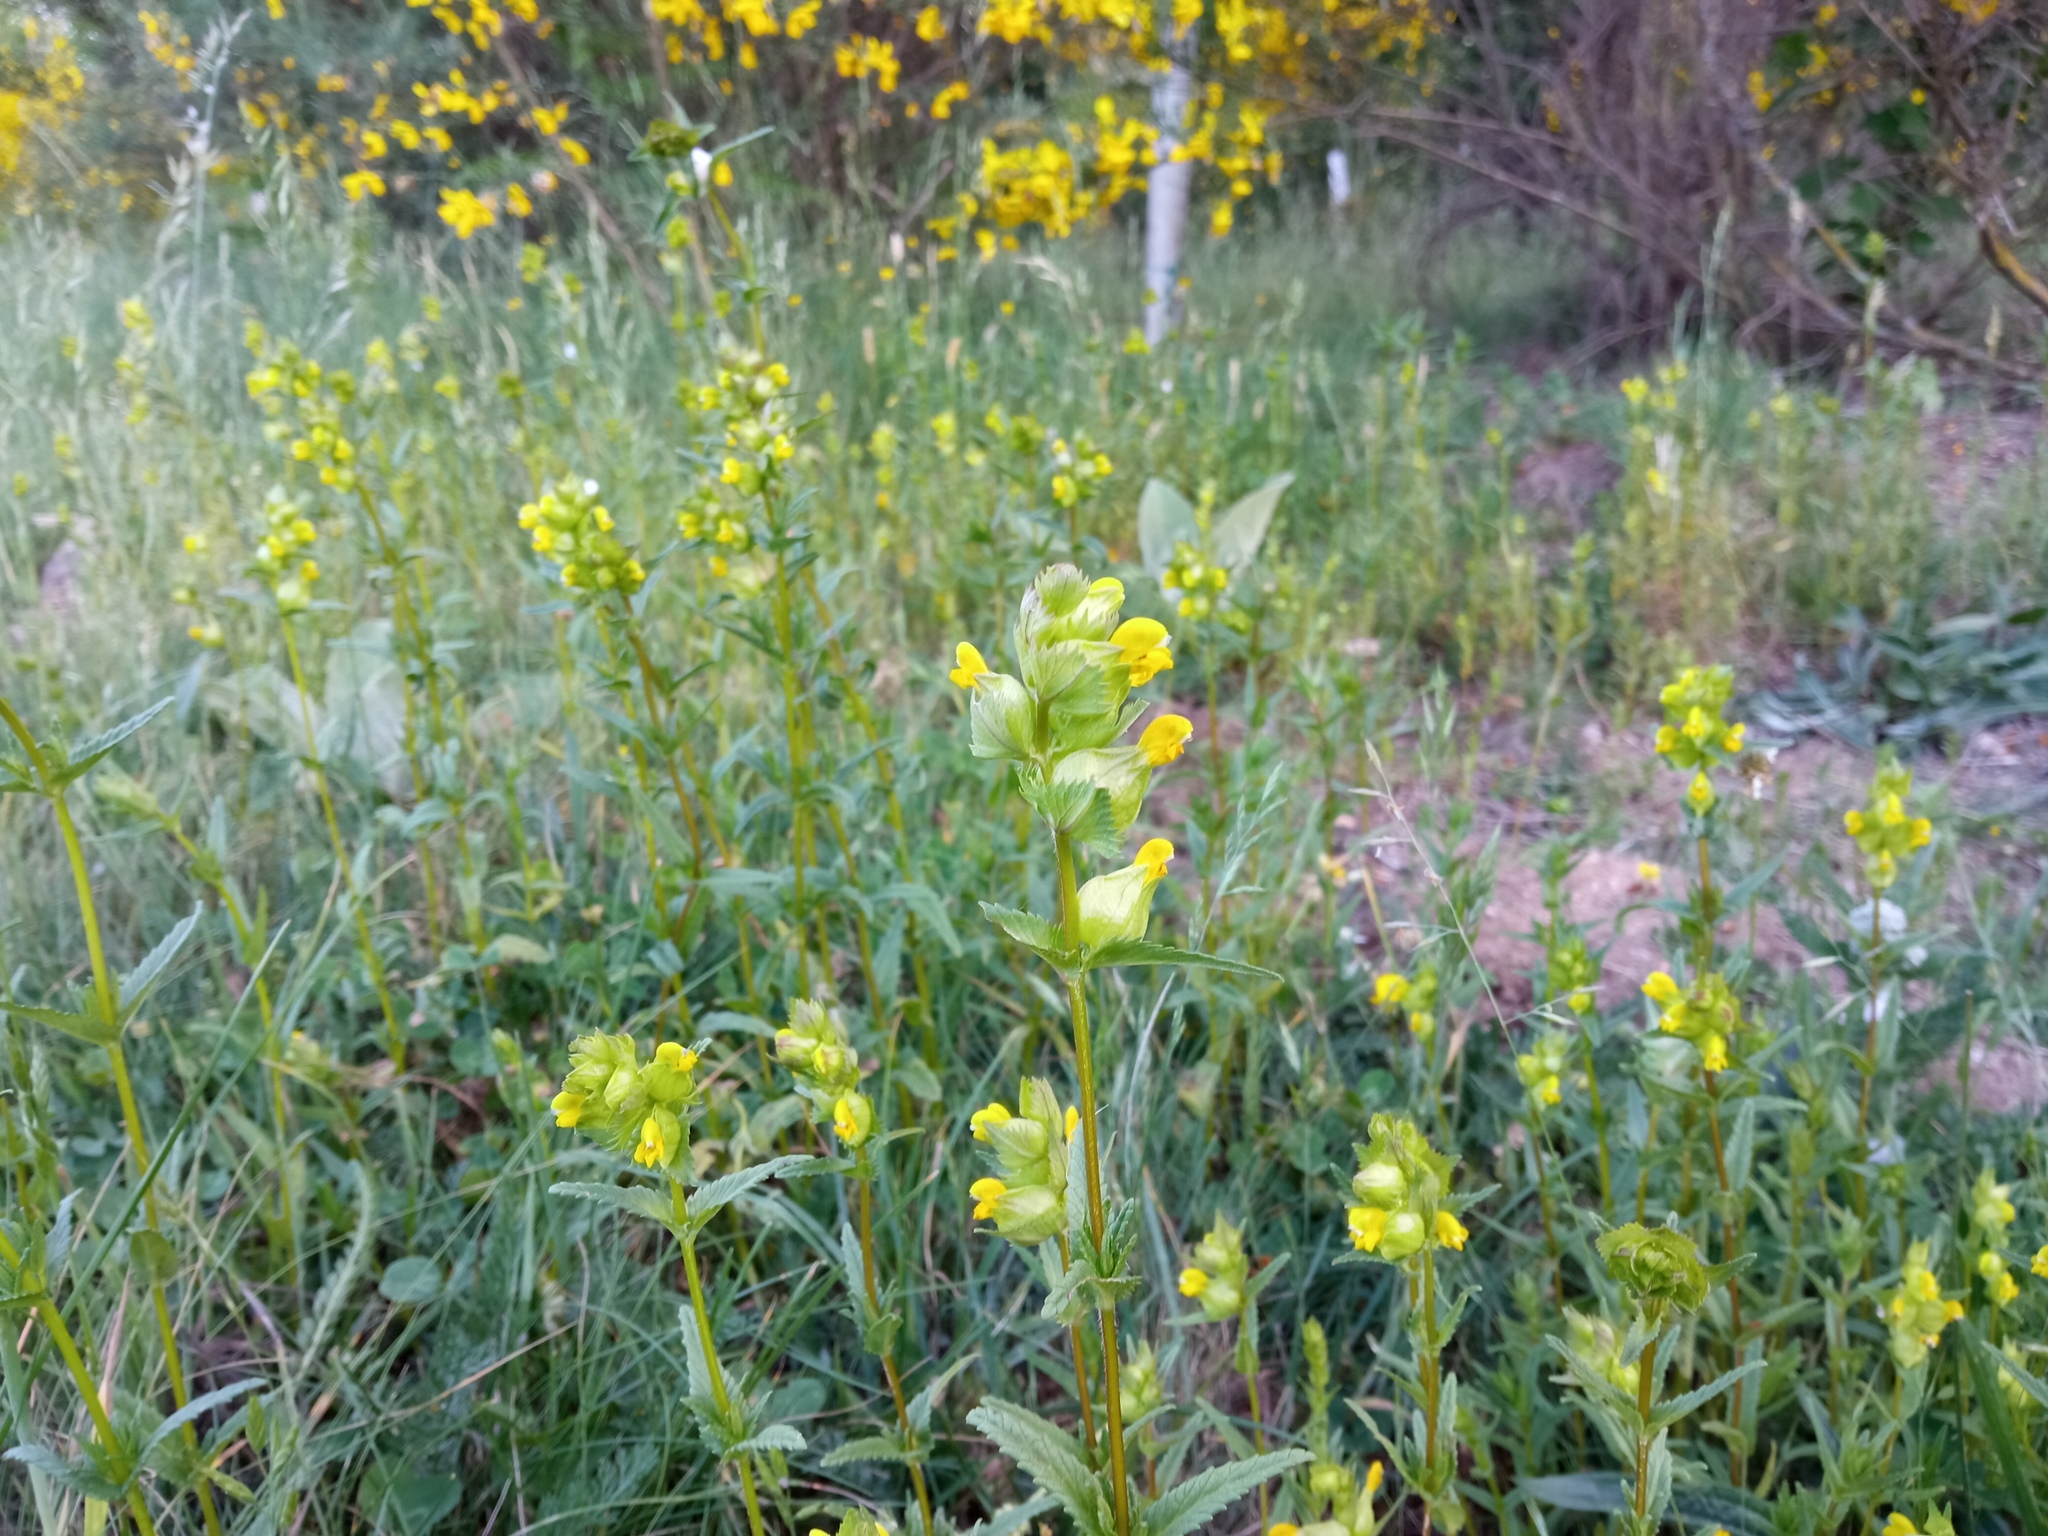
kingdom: Plantae
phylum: Tracheophyta
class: Magnoliopsida
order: Lamiales
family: Orobanchaceae
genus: Rhinanthus
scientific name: Rhinanthus minor
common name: Yellow-rattle
